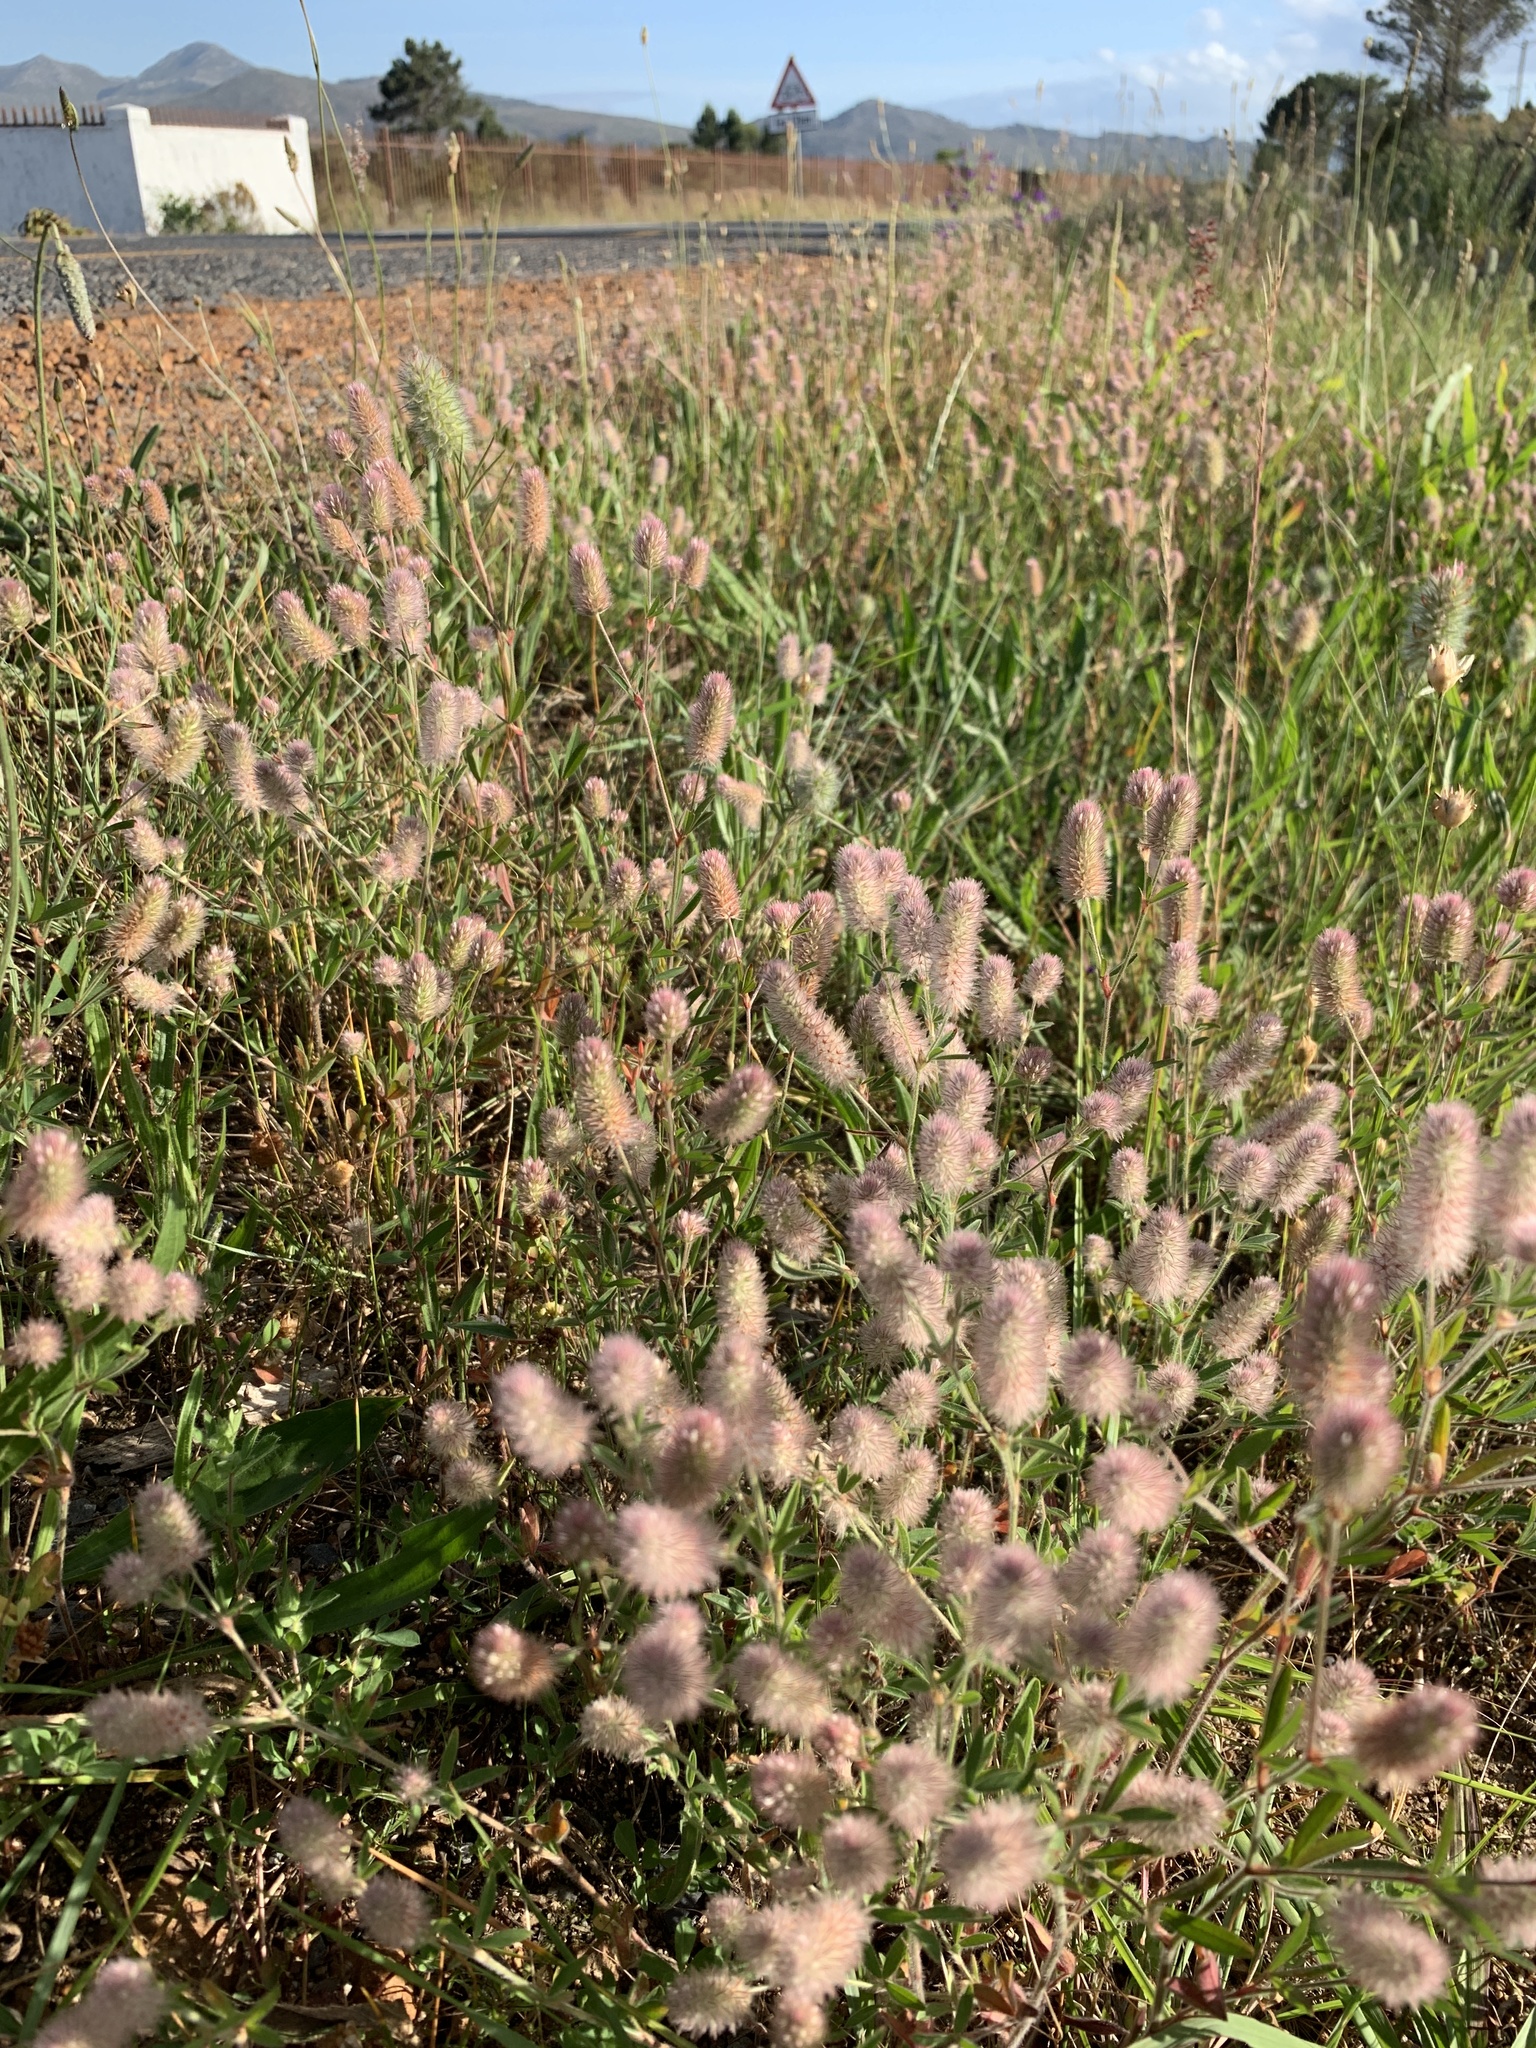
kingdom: Plantae
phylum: Tracheophyta
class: Magnoliopsida
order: Fabales
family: Fabaceae
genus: Trifolium
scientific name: Trifolium arvense
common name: Hare's-foot clover
